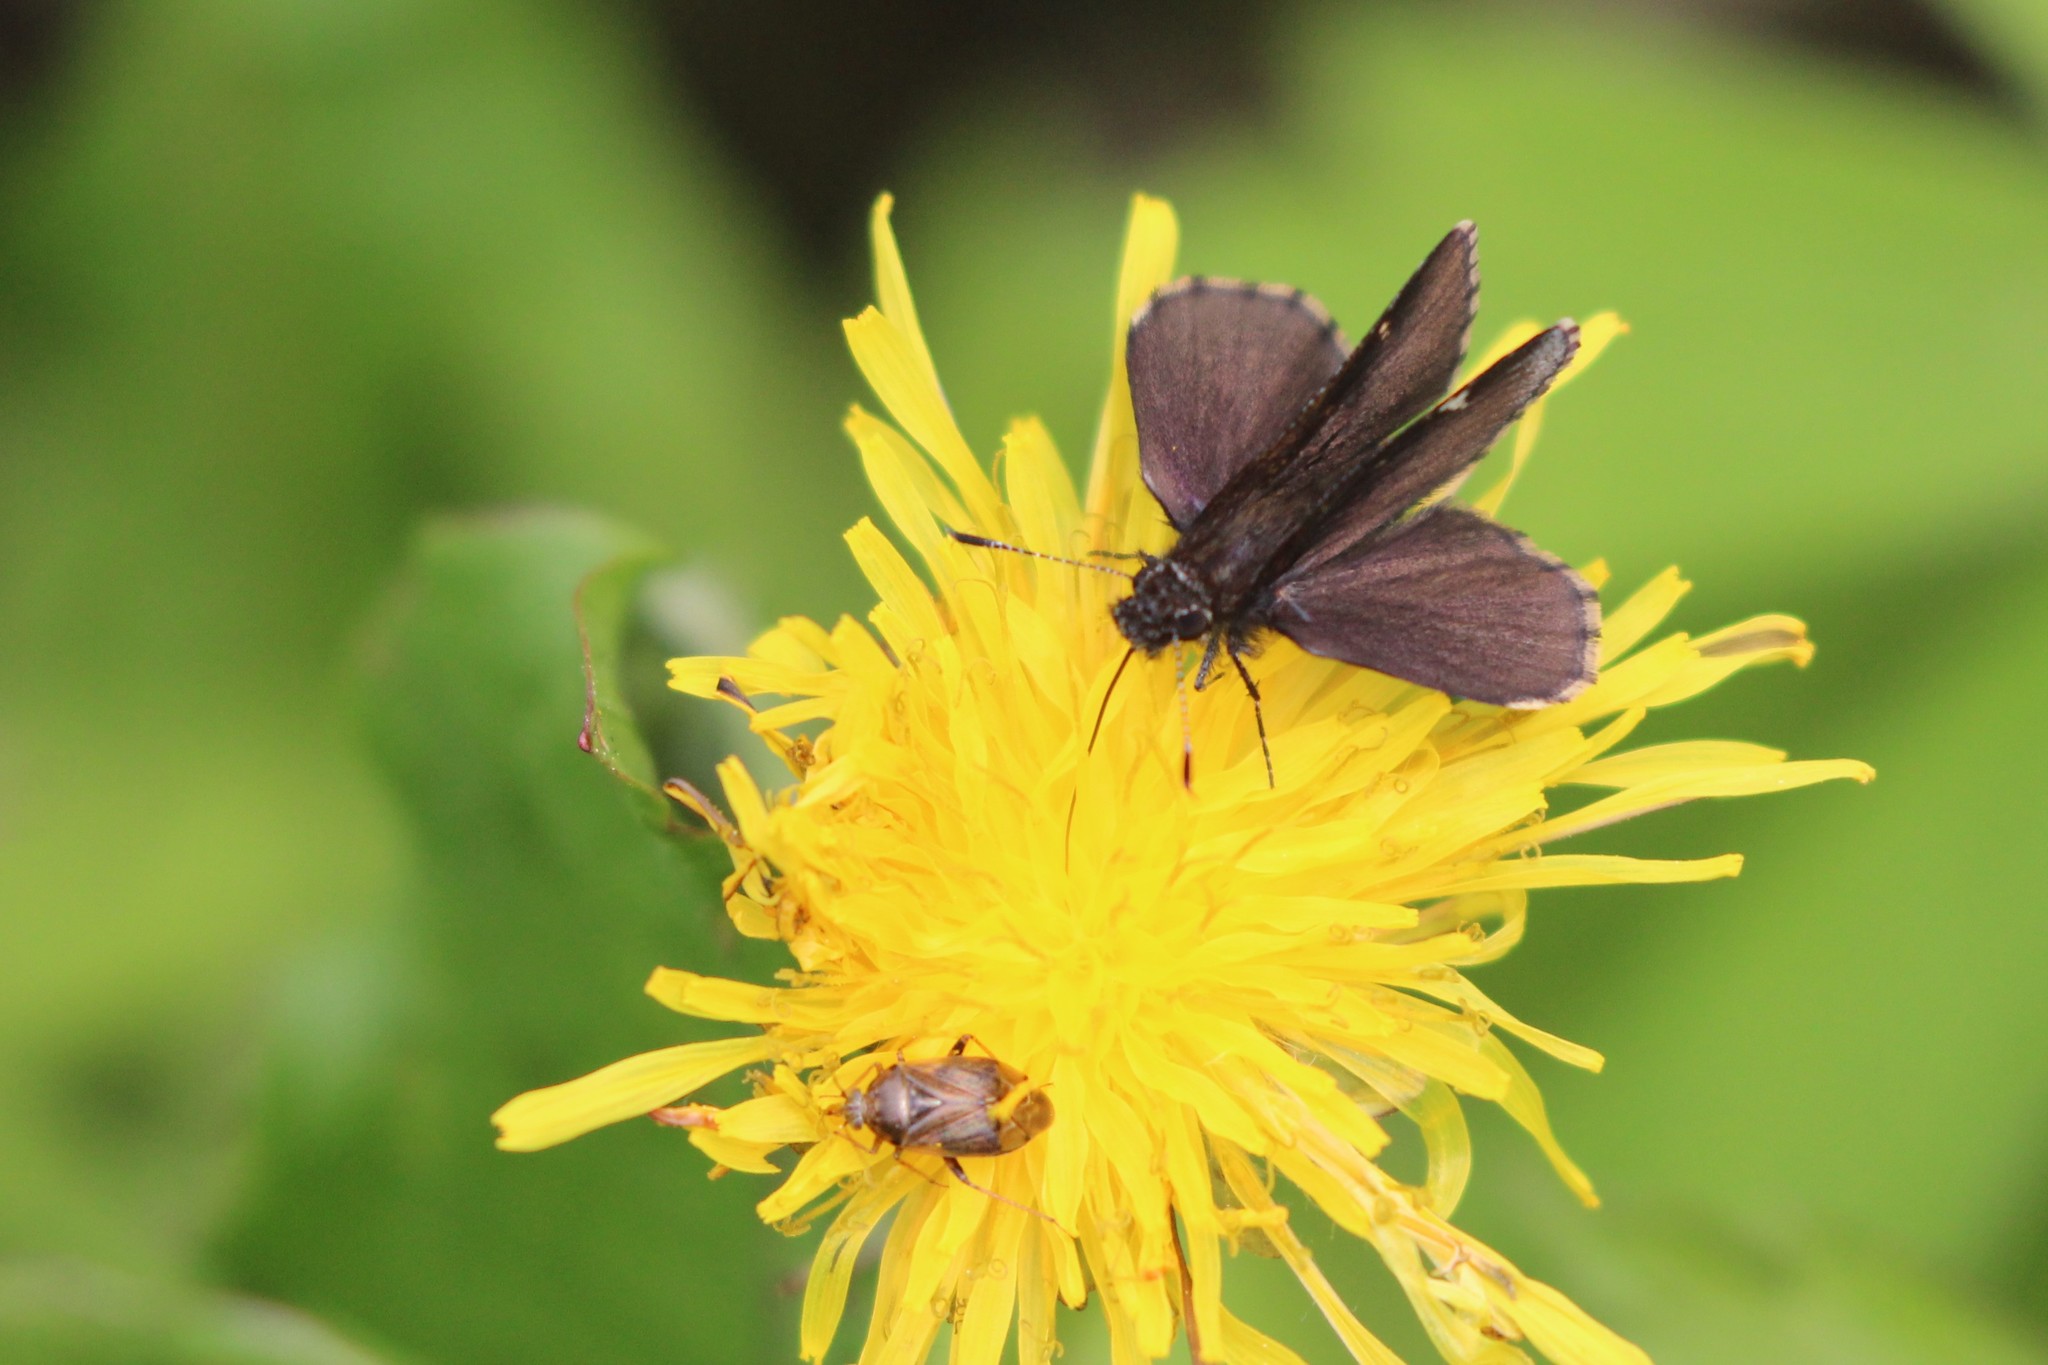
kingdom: Animalia
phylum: Arthropoda
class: Insecta
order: Lepidoptera
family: Hesperiidae
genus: Mastor
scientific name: Mastor vialis
